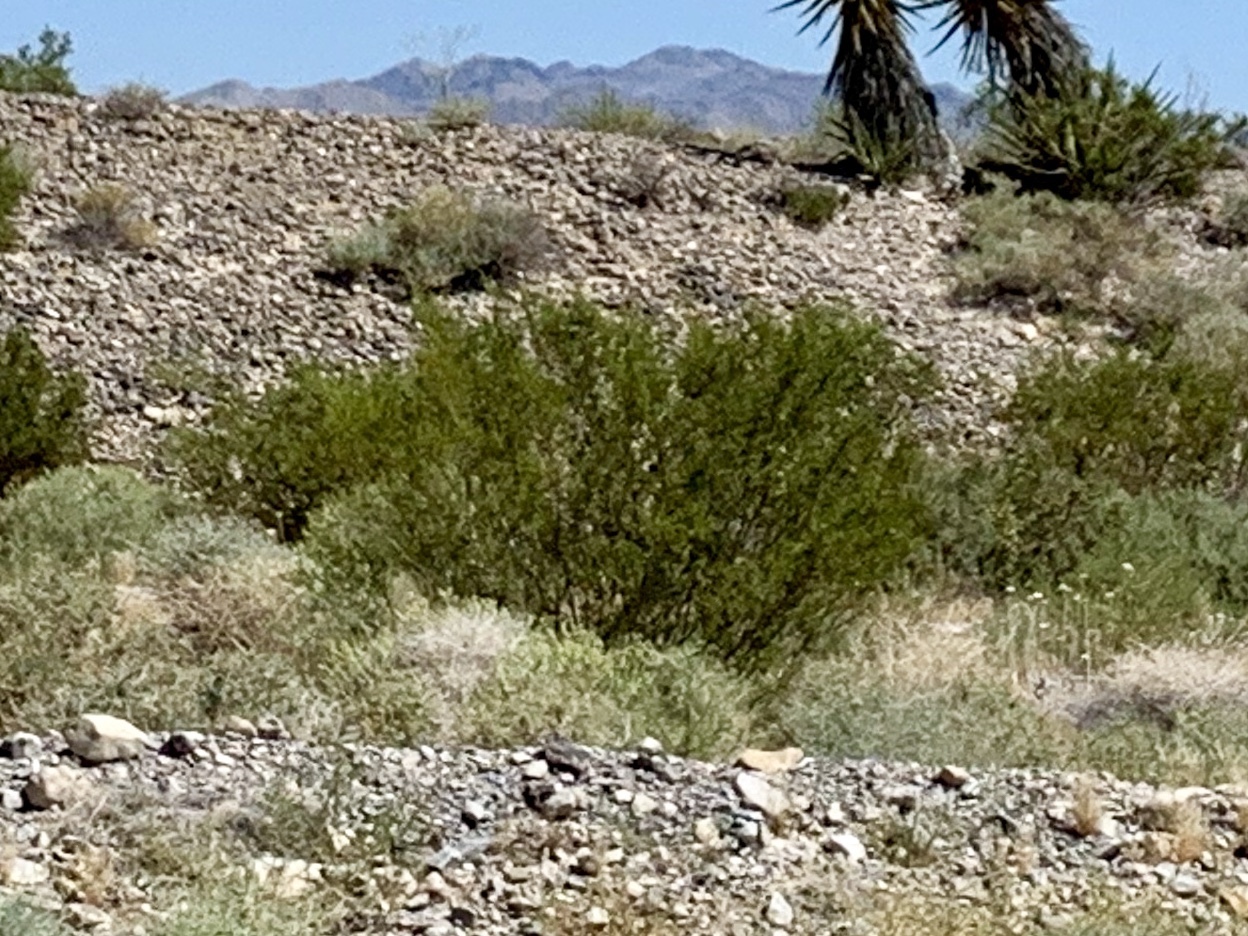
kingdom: Plantae
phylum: Tracheophyta
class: Magnoliopsida
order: Zygophyllales
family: Zygophyllaceae
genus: Larrea
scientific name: Larrea tridentata
